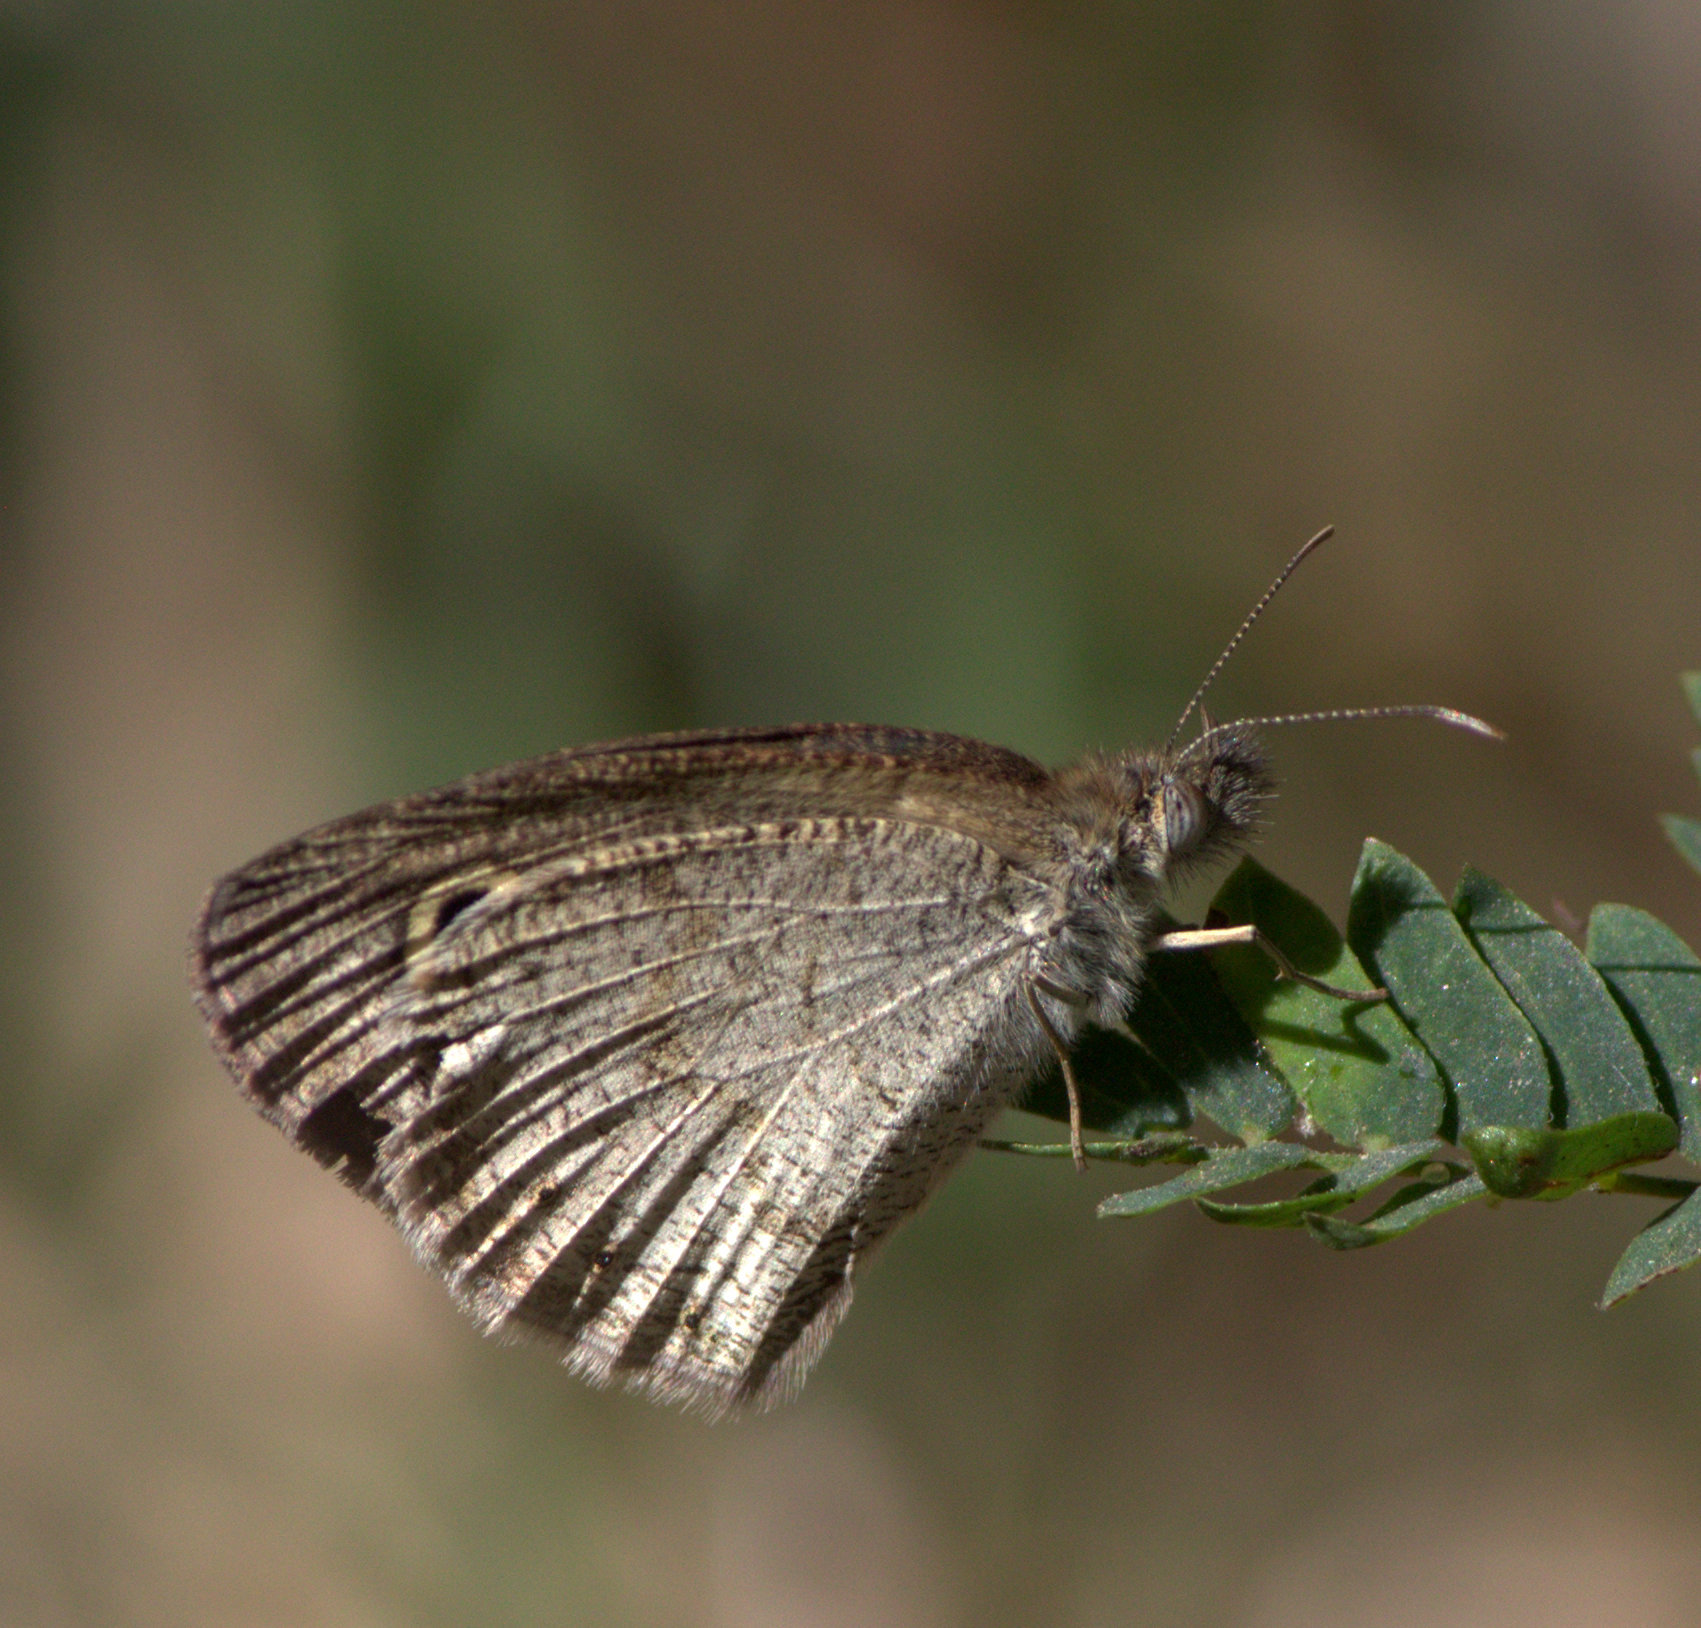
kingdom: Animalia
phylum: Arthropoda
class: Insecta
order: Lepidoptera
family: Nymphalidae
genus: Ypthima
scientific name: Ypthima huebneri
